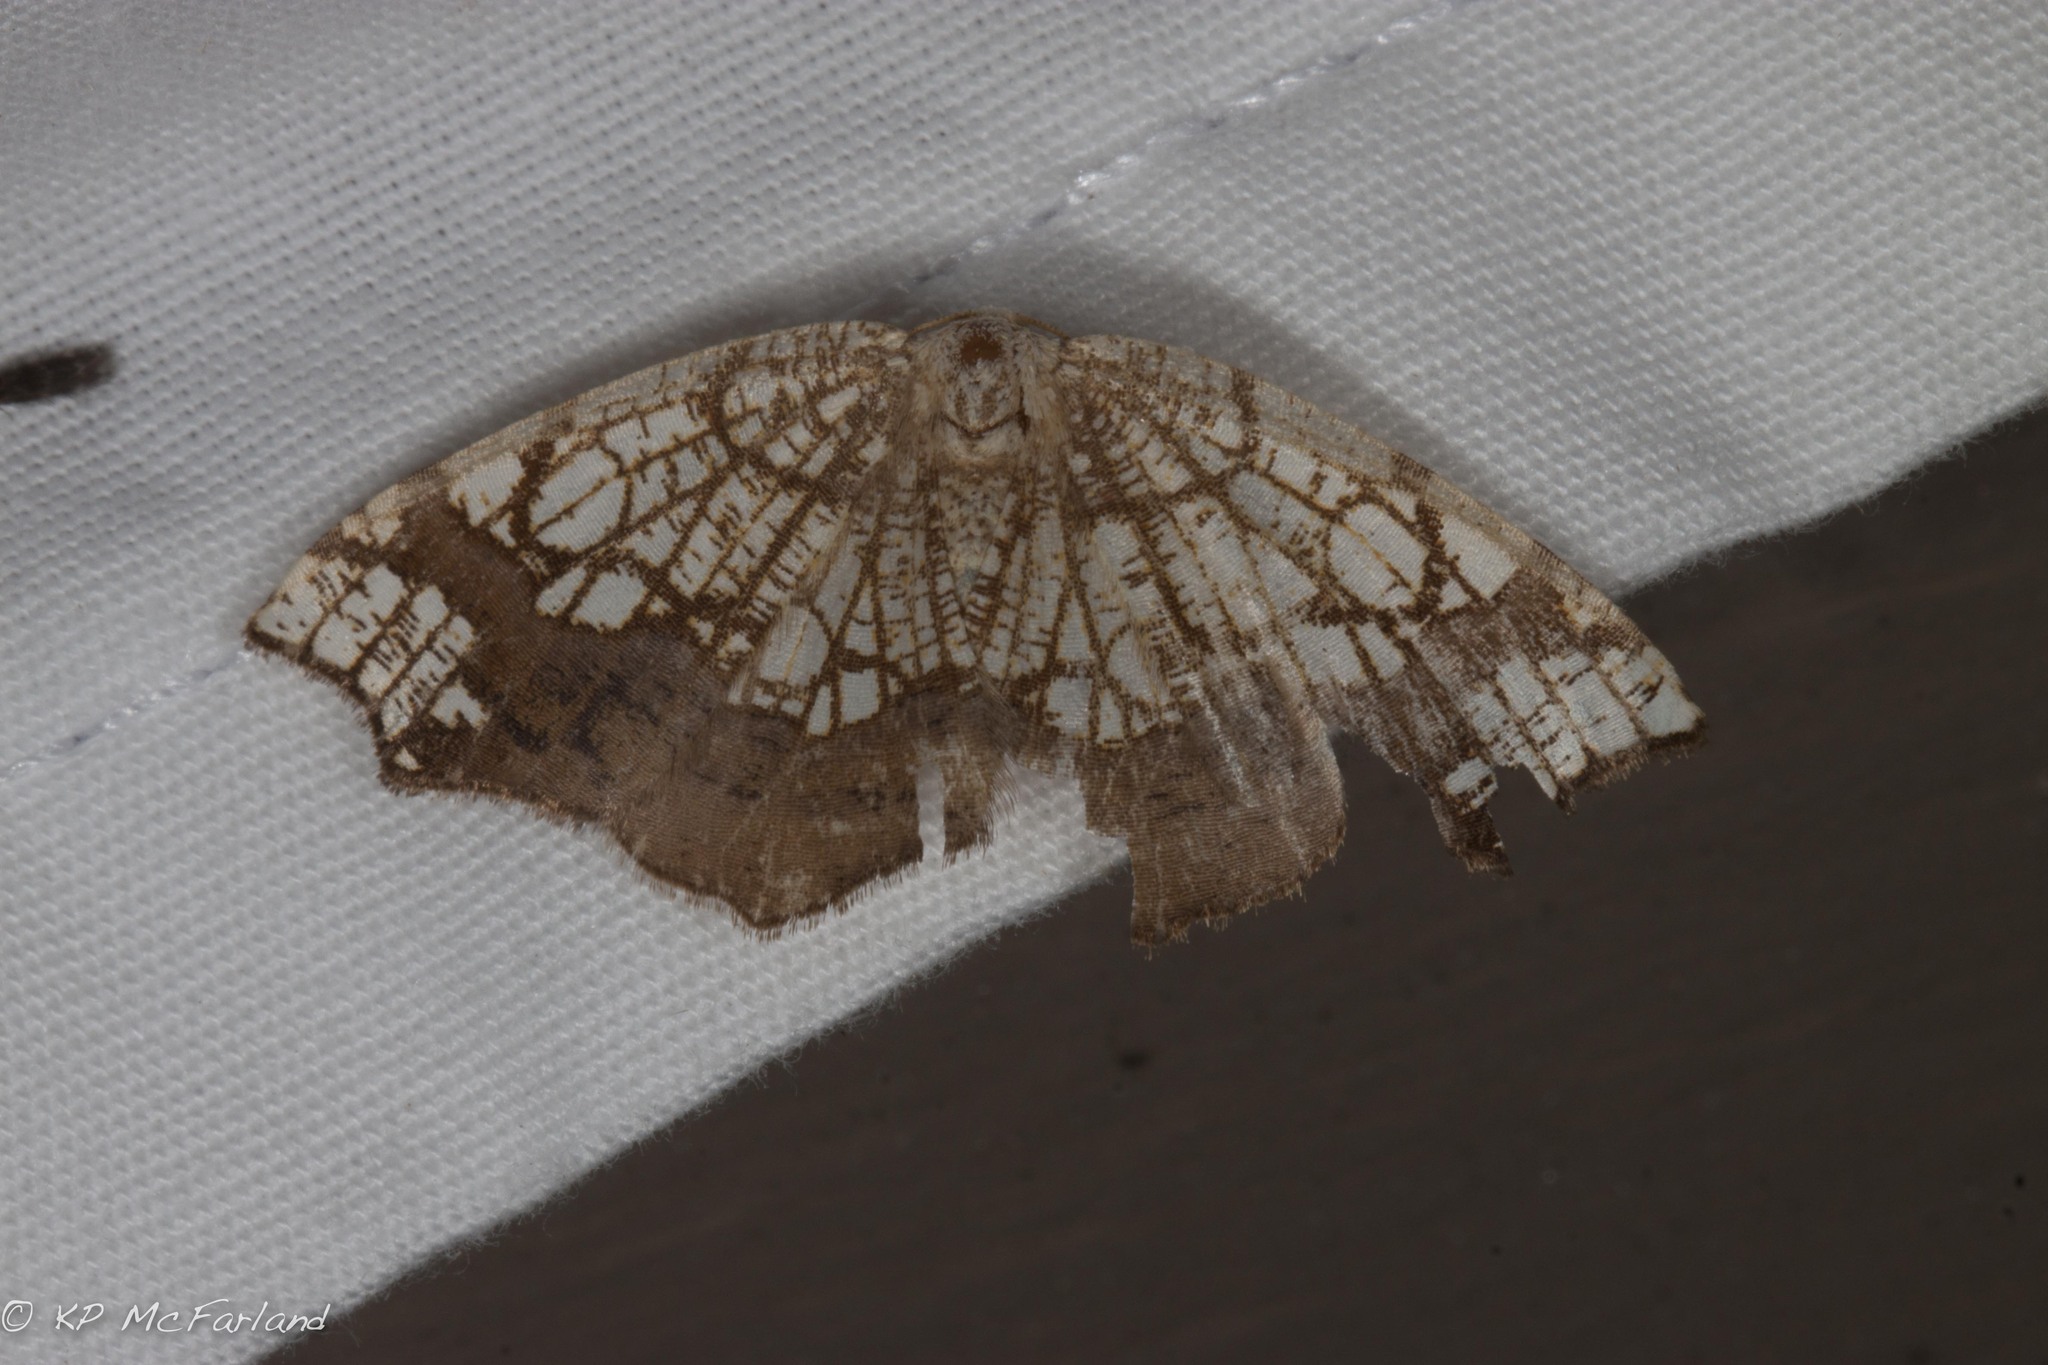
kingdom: Animalia
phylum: Arthropoda
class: Insecta
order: Lepidoptera
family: Geometridae
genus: Nematocampa
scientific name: Nematocampa resistaria
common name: Horned spanworm moth
